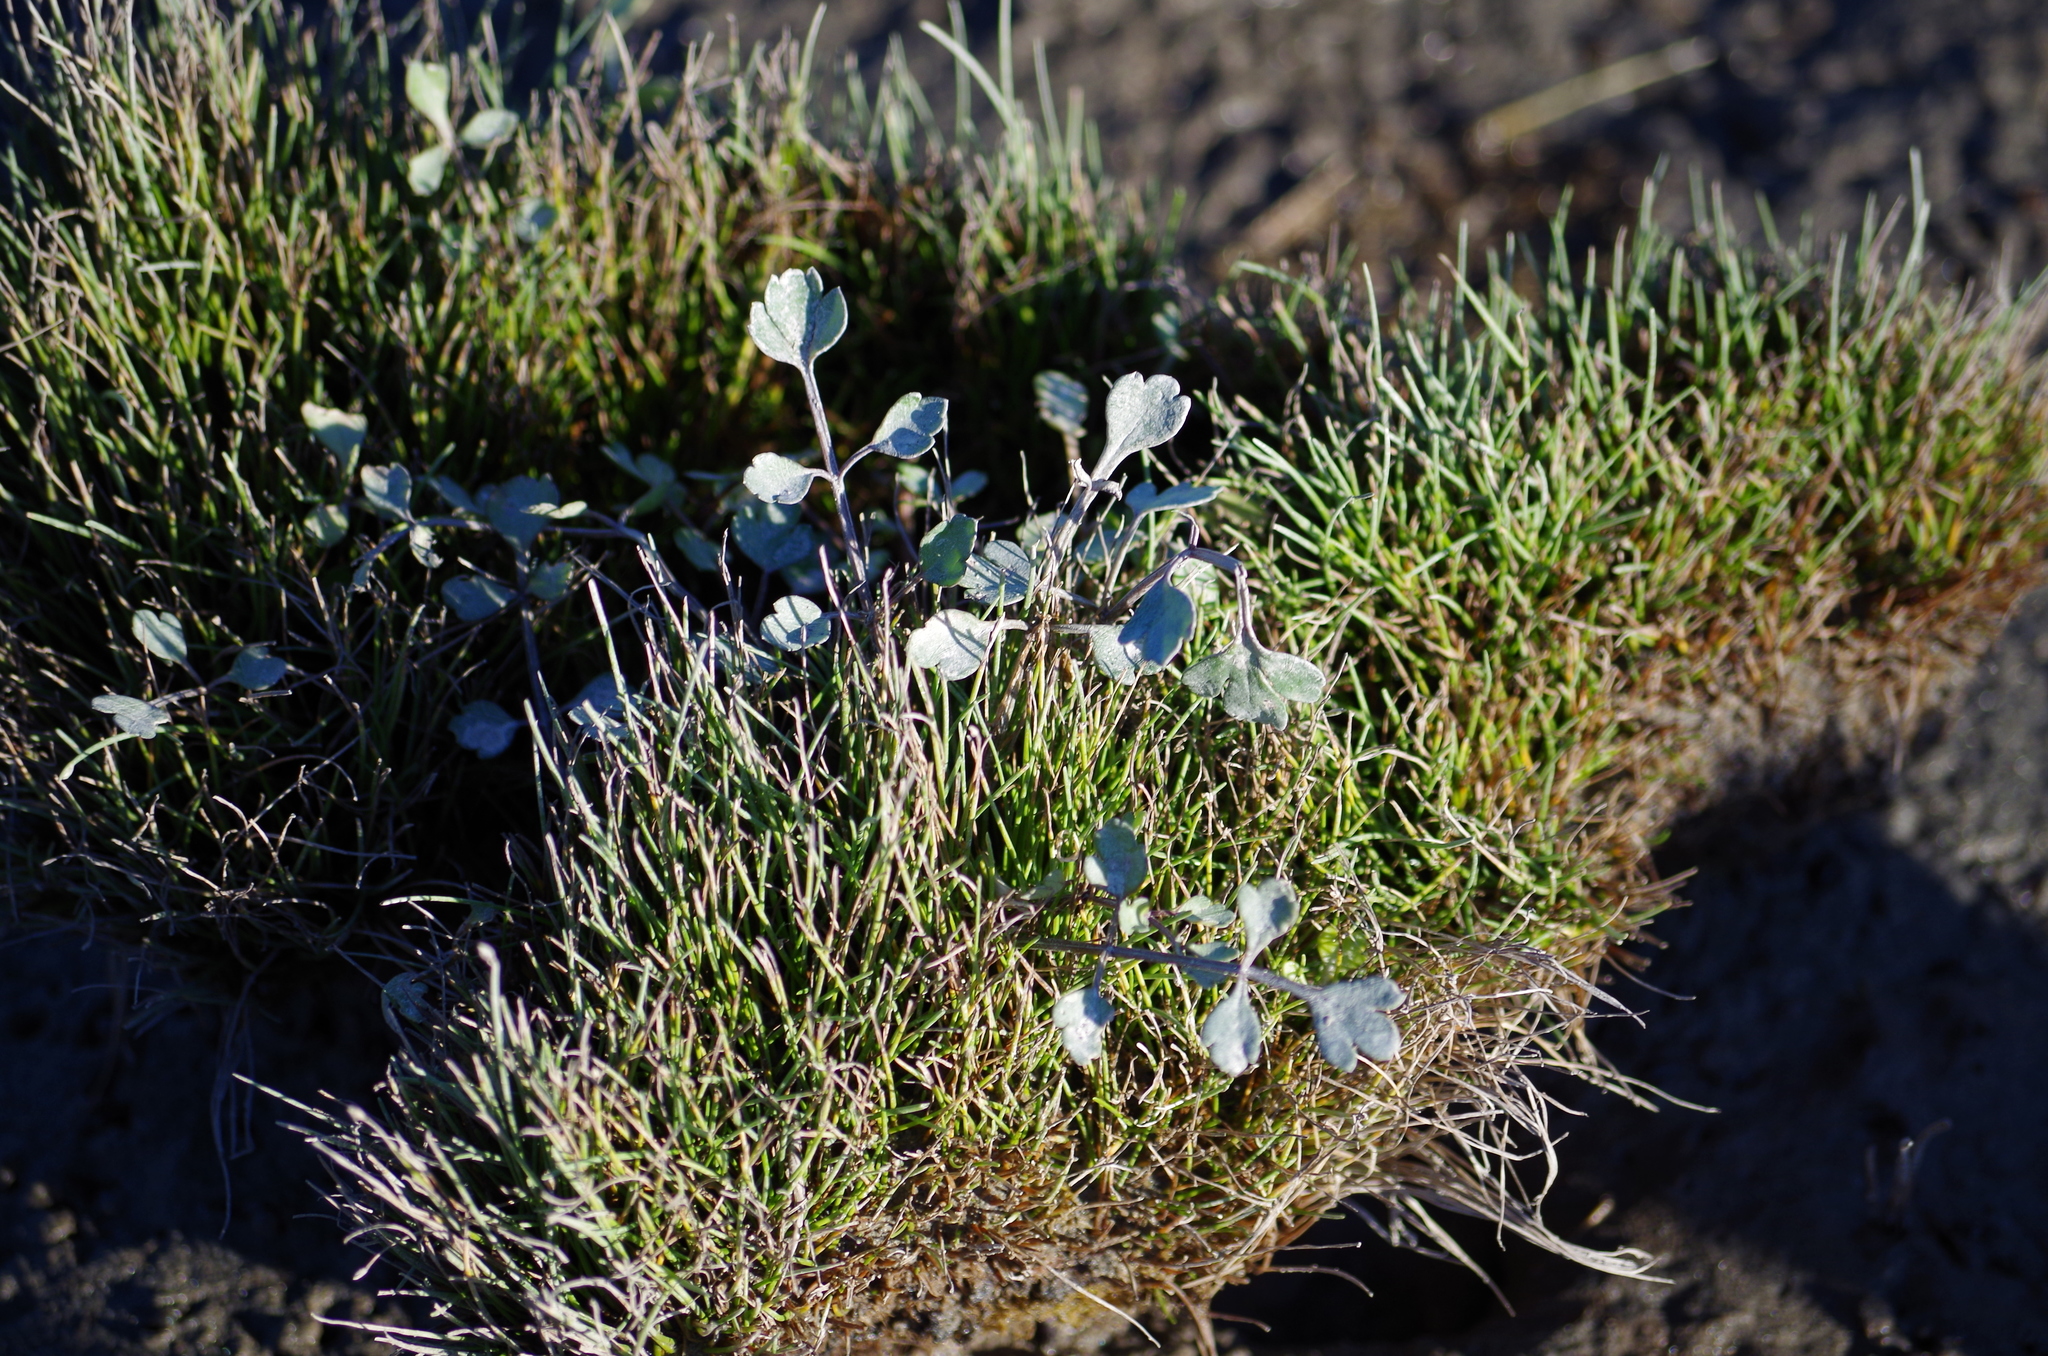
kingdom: Plantae
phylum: Tracheophyta
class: Magnoliopsida
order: Apiales
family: Apiaceae
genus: Apium
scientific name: Apium prostratum
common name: Prostrate marshwort
